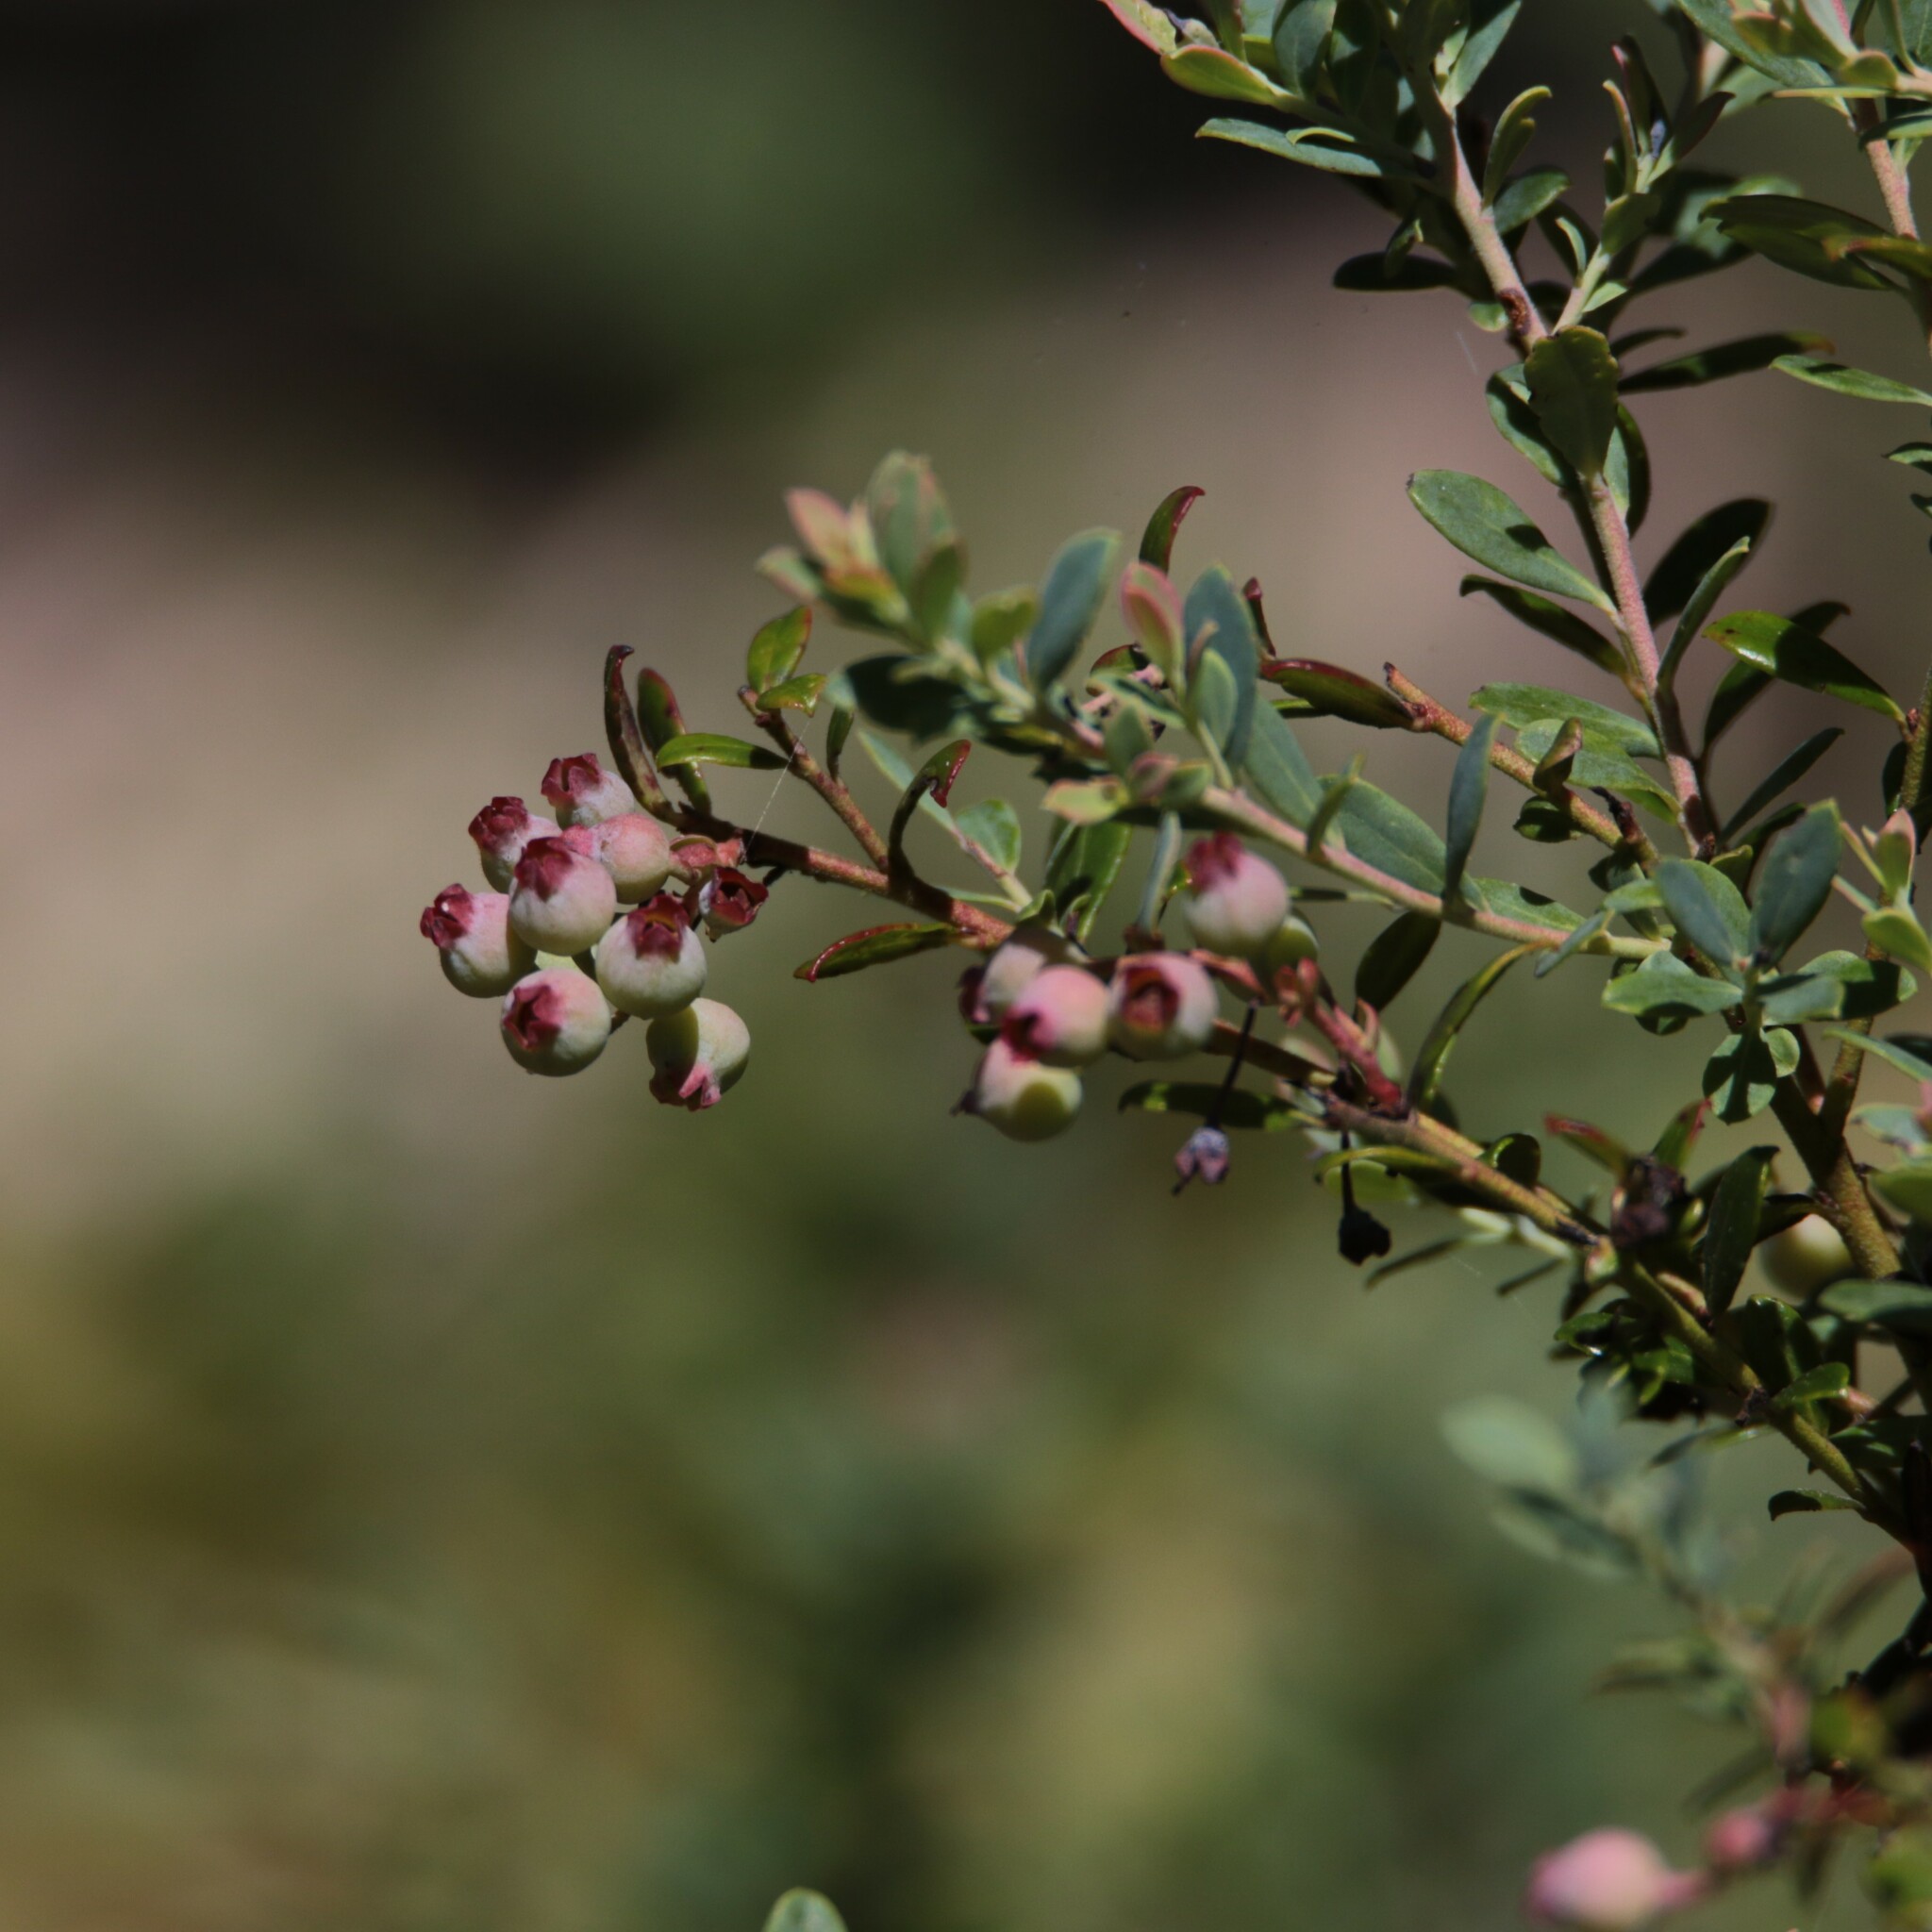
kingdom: Plantae
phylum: Tracheophyta
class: Magnoliopsida
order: Ericales
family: Ericaceae
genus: Vaccinium
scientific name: Vaccinium darrowii
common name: Darrow's blueberry
